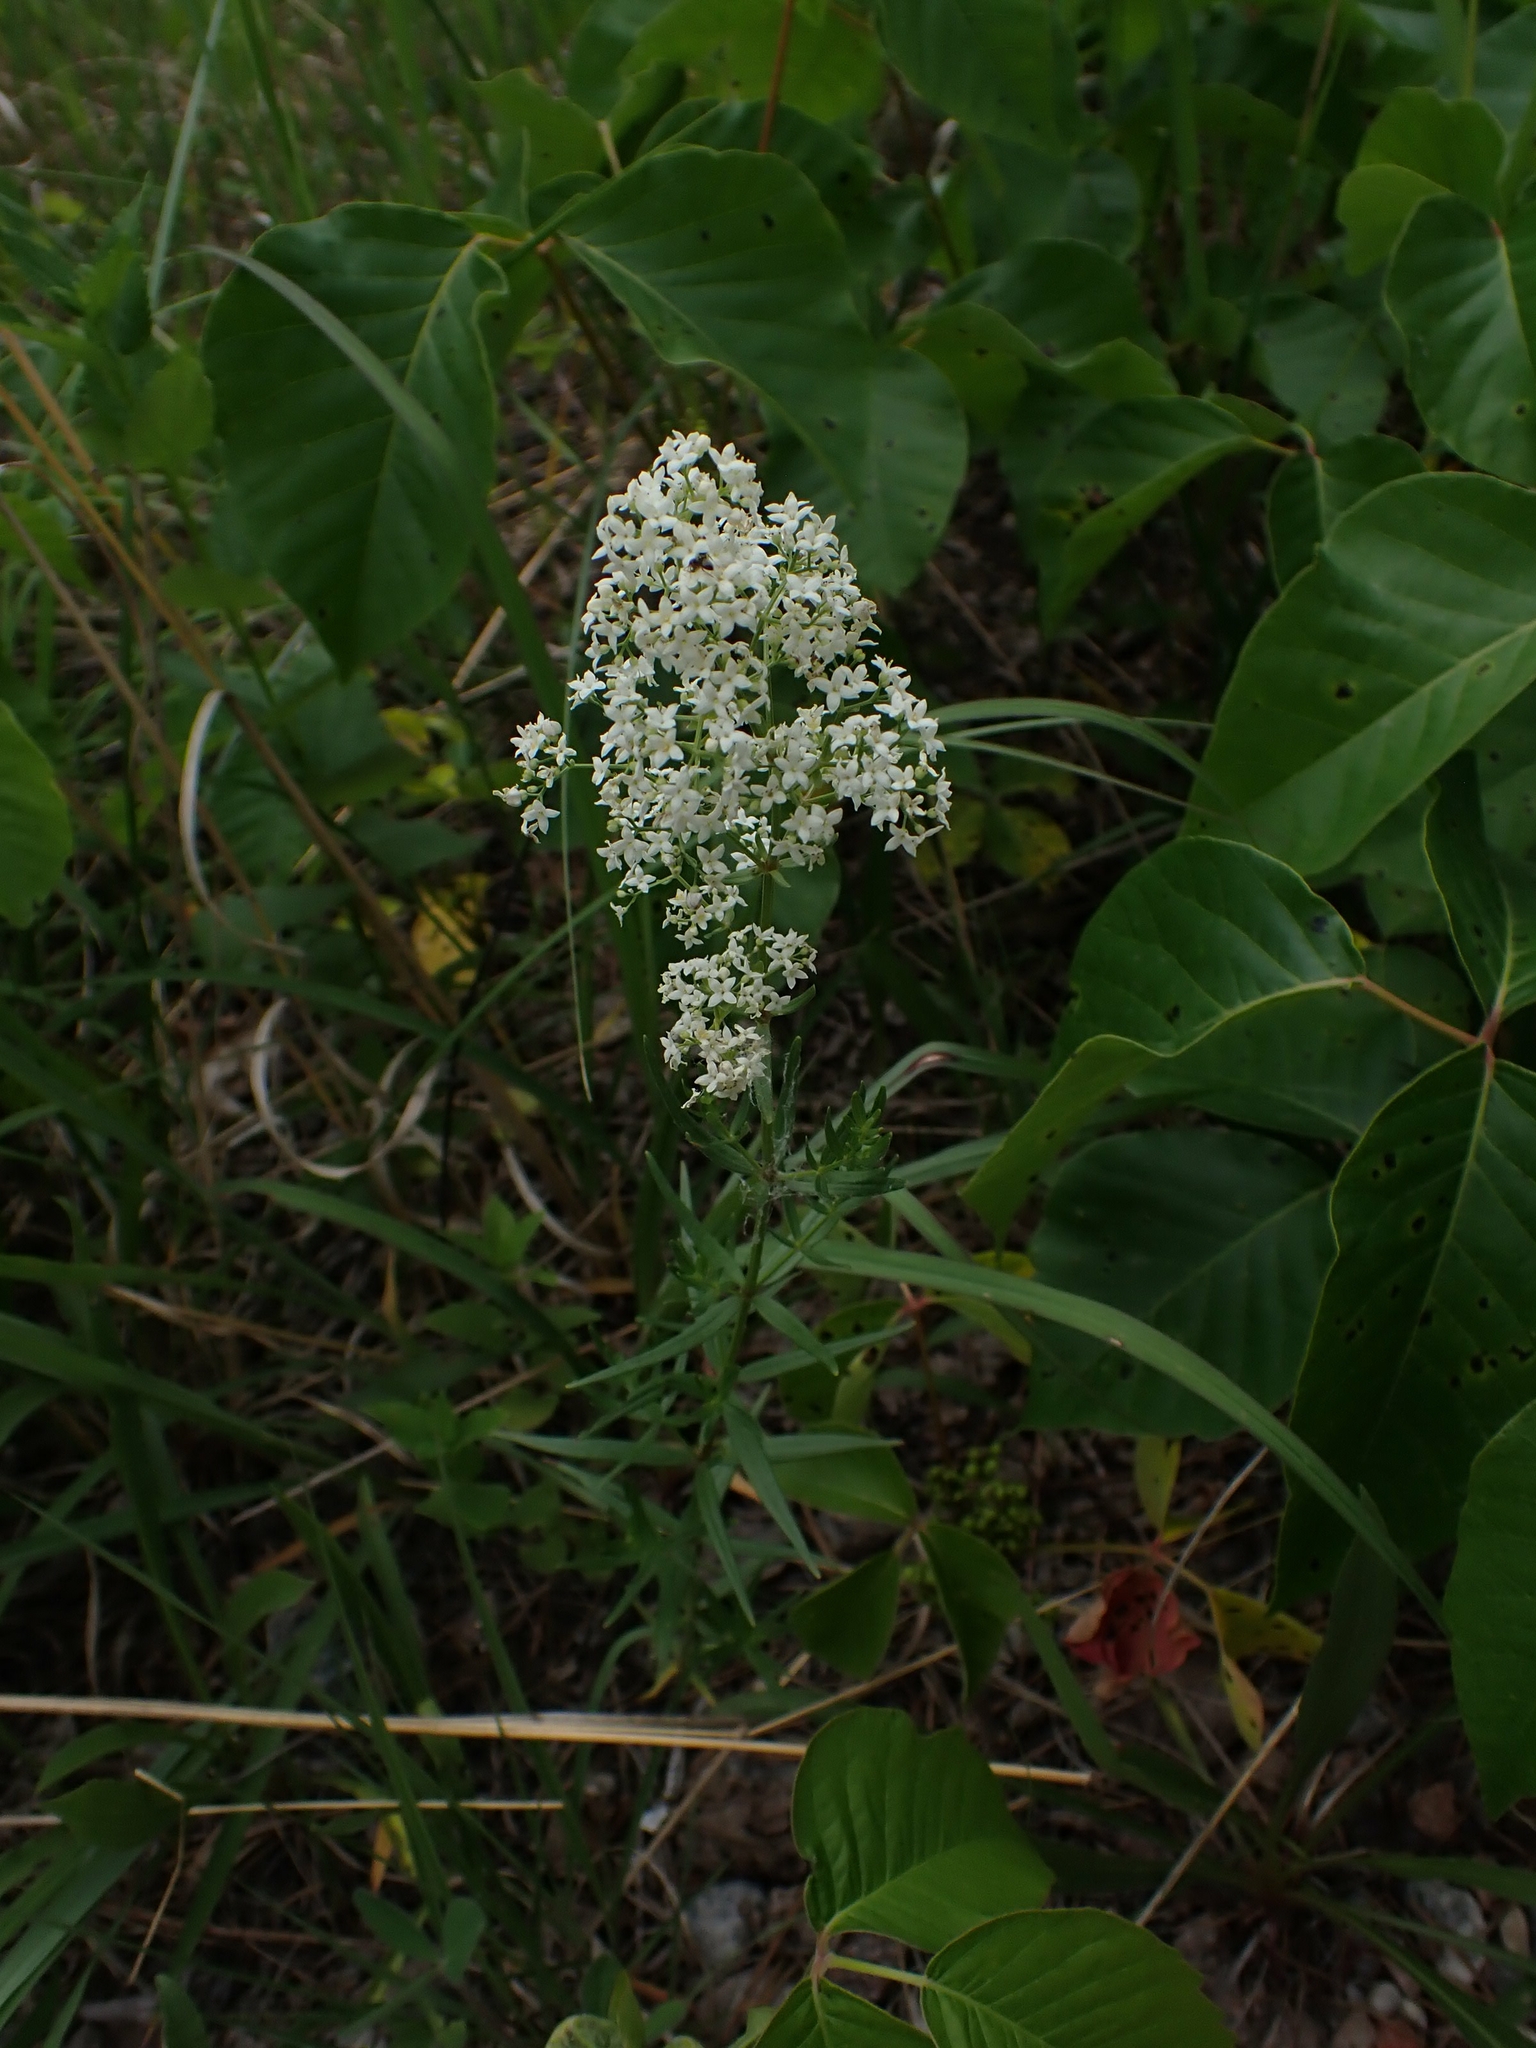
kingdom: Plantae
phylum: Tracheophyta
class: Magnoliopsida
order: Gentianales
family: Rubiaceae
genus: Galium
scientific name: Galium boreale
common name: Northern bedstraw
